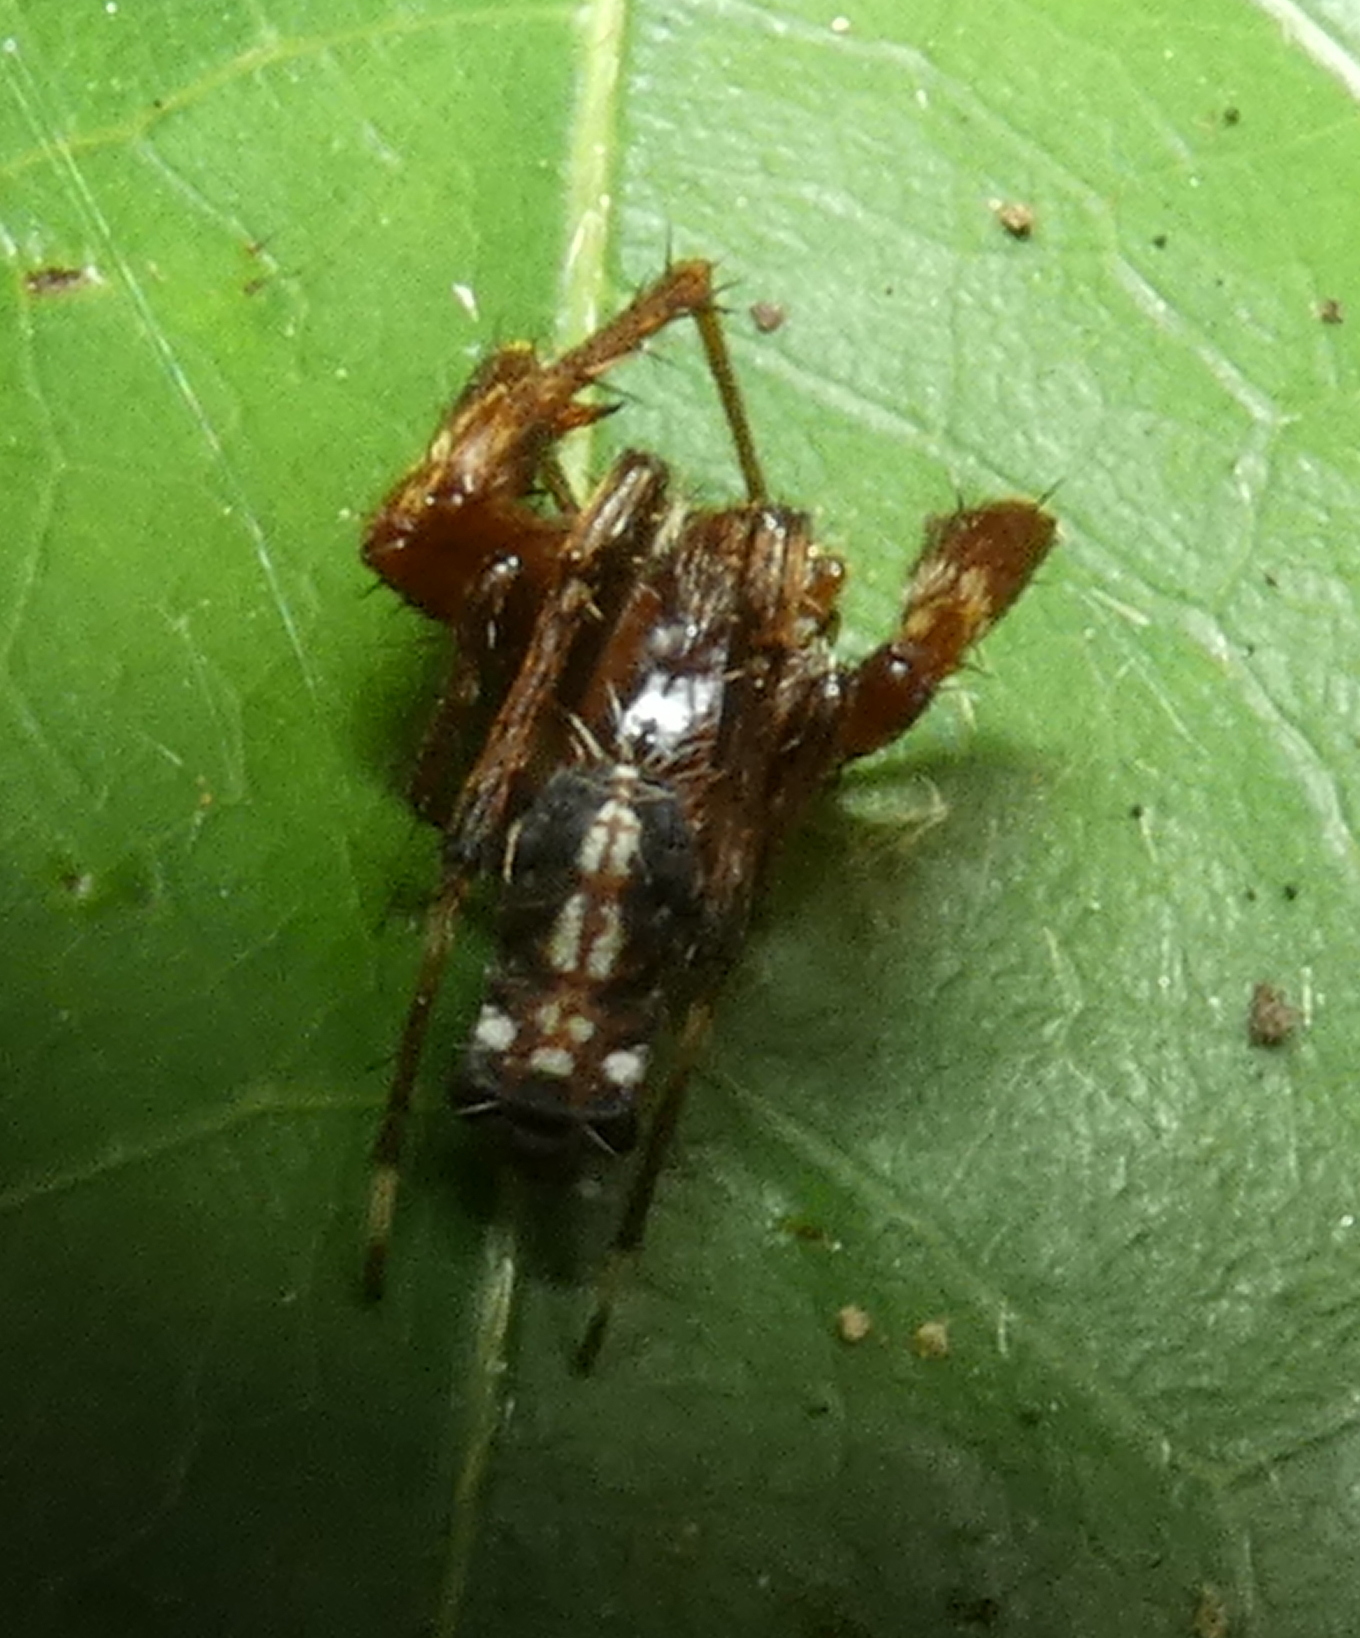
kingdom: Animalia
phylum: Arthropoda
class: Arachnida
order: Araneae
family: Araneidae
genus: Alpaida
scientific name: Alpaida truncata
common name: Orb weavers
